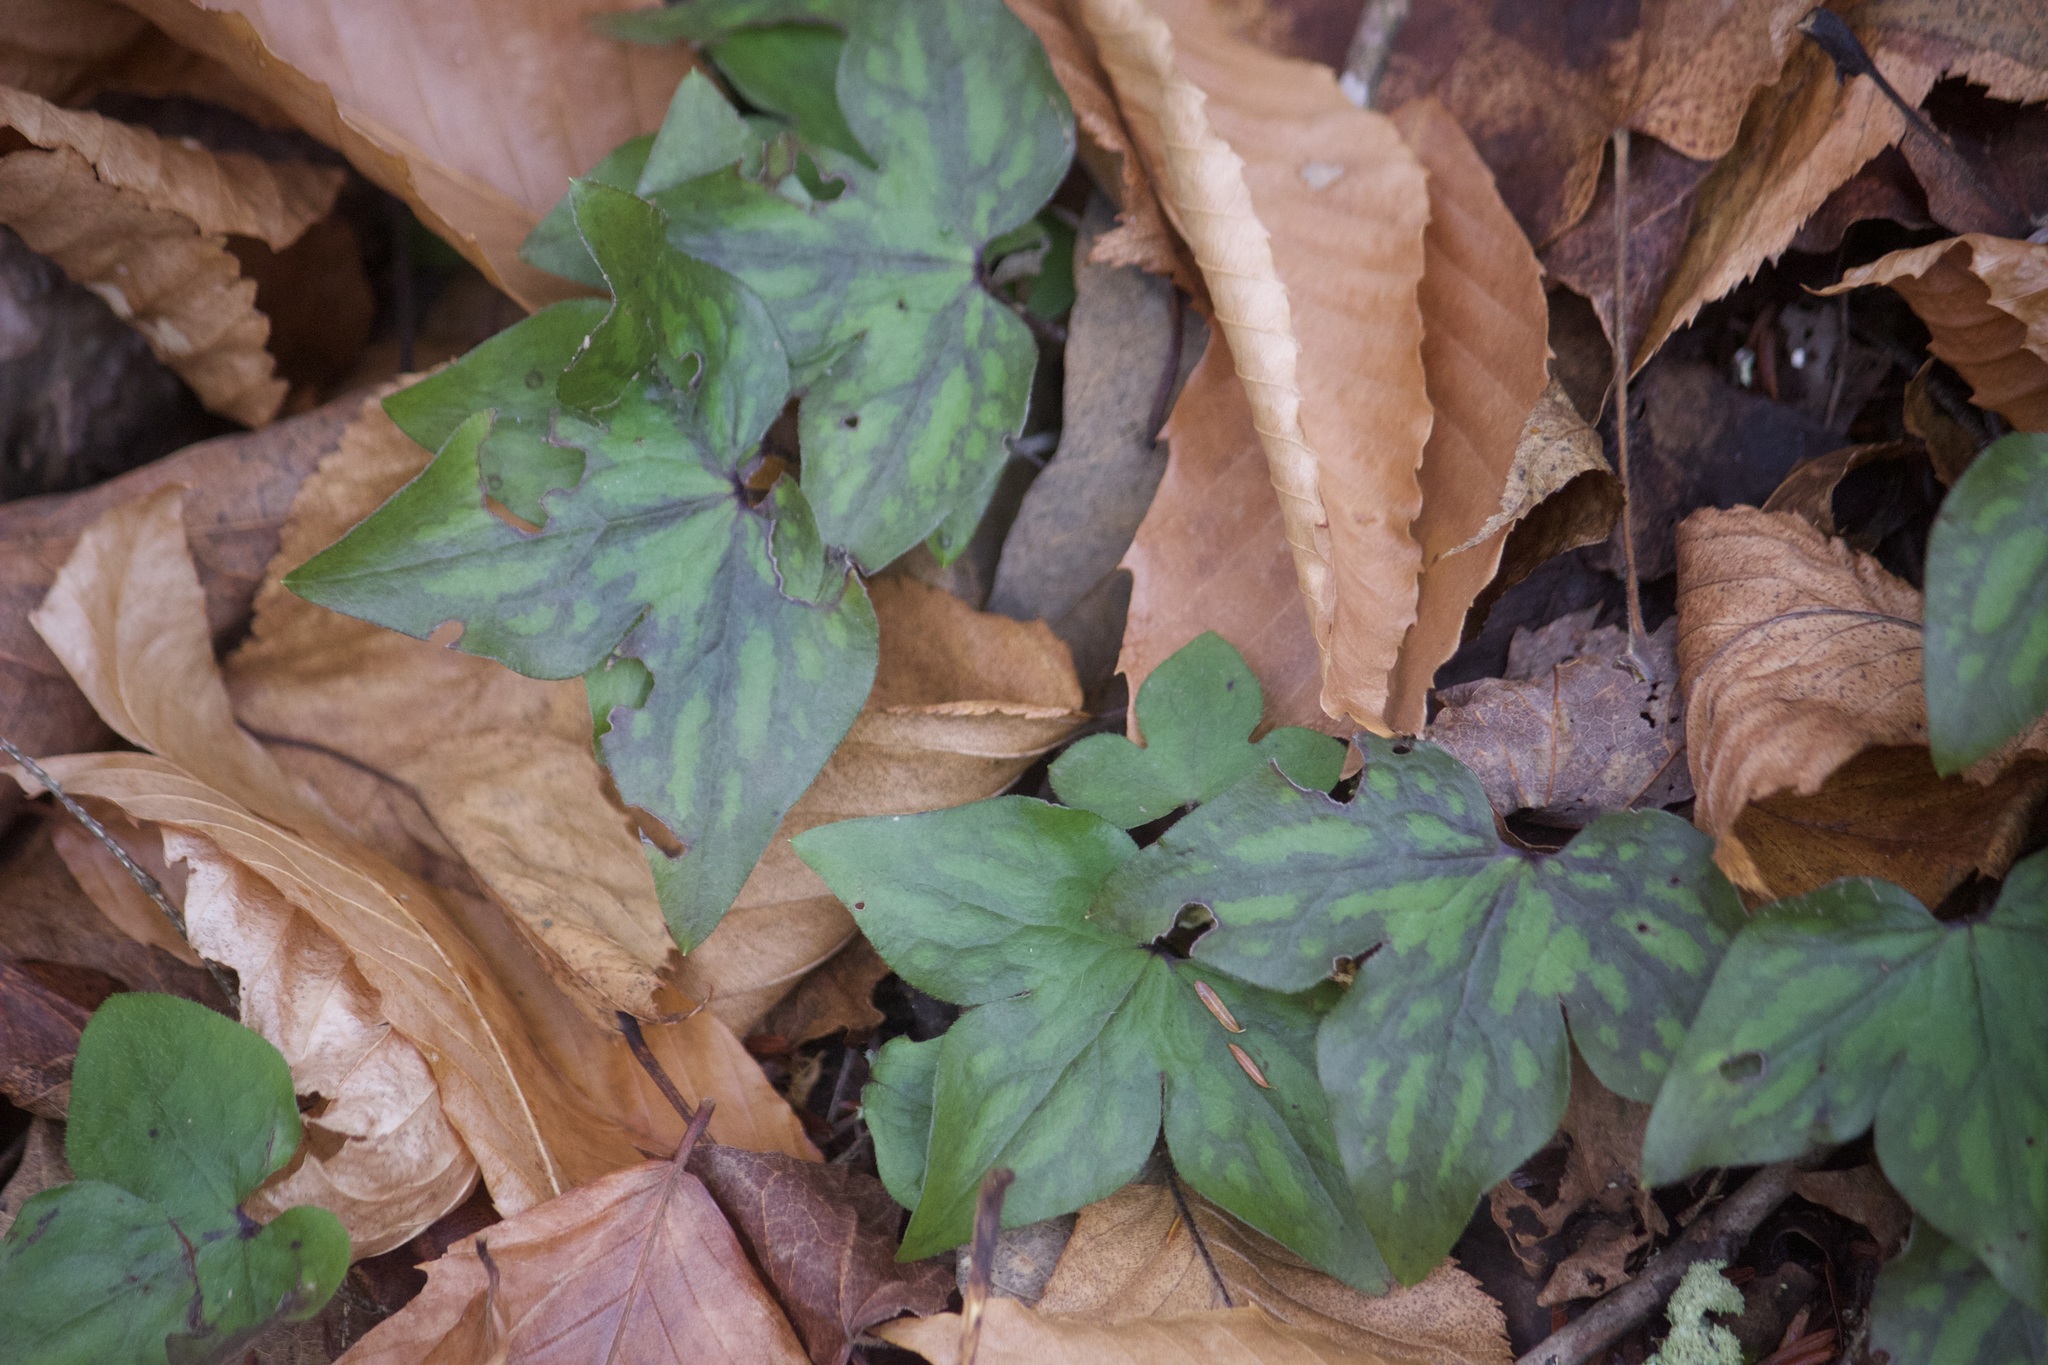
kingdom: Plantae
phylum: Tracheophyta
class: Magnoliopsida
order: Ranunculales
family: Ranunculaceae
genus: Hepatica
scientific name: Hepatica acutiloba
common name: Sharp-lobed hepatica
